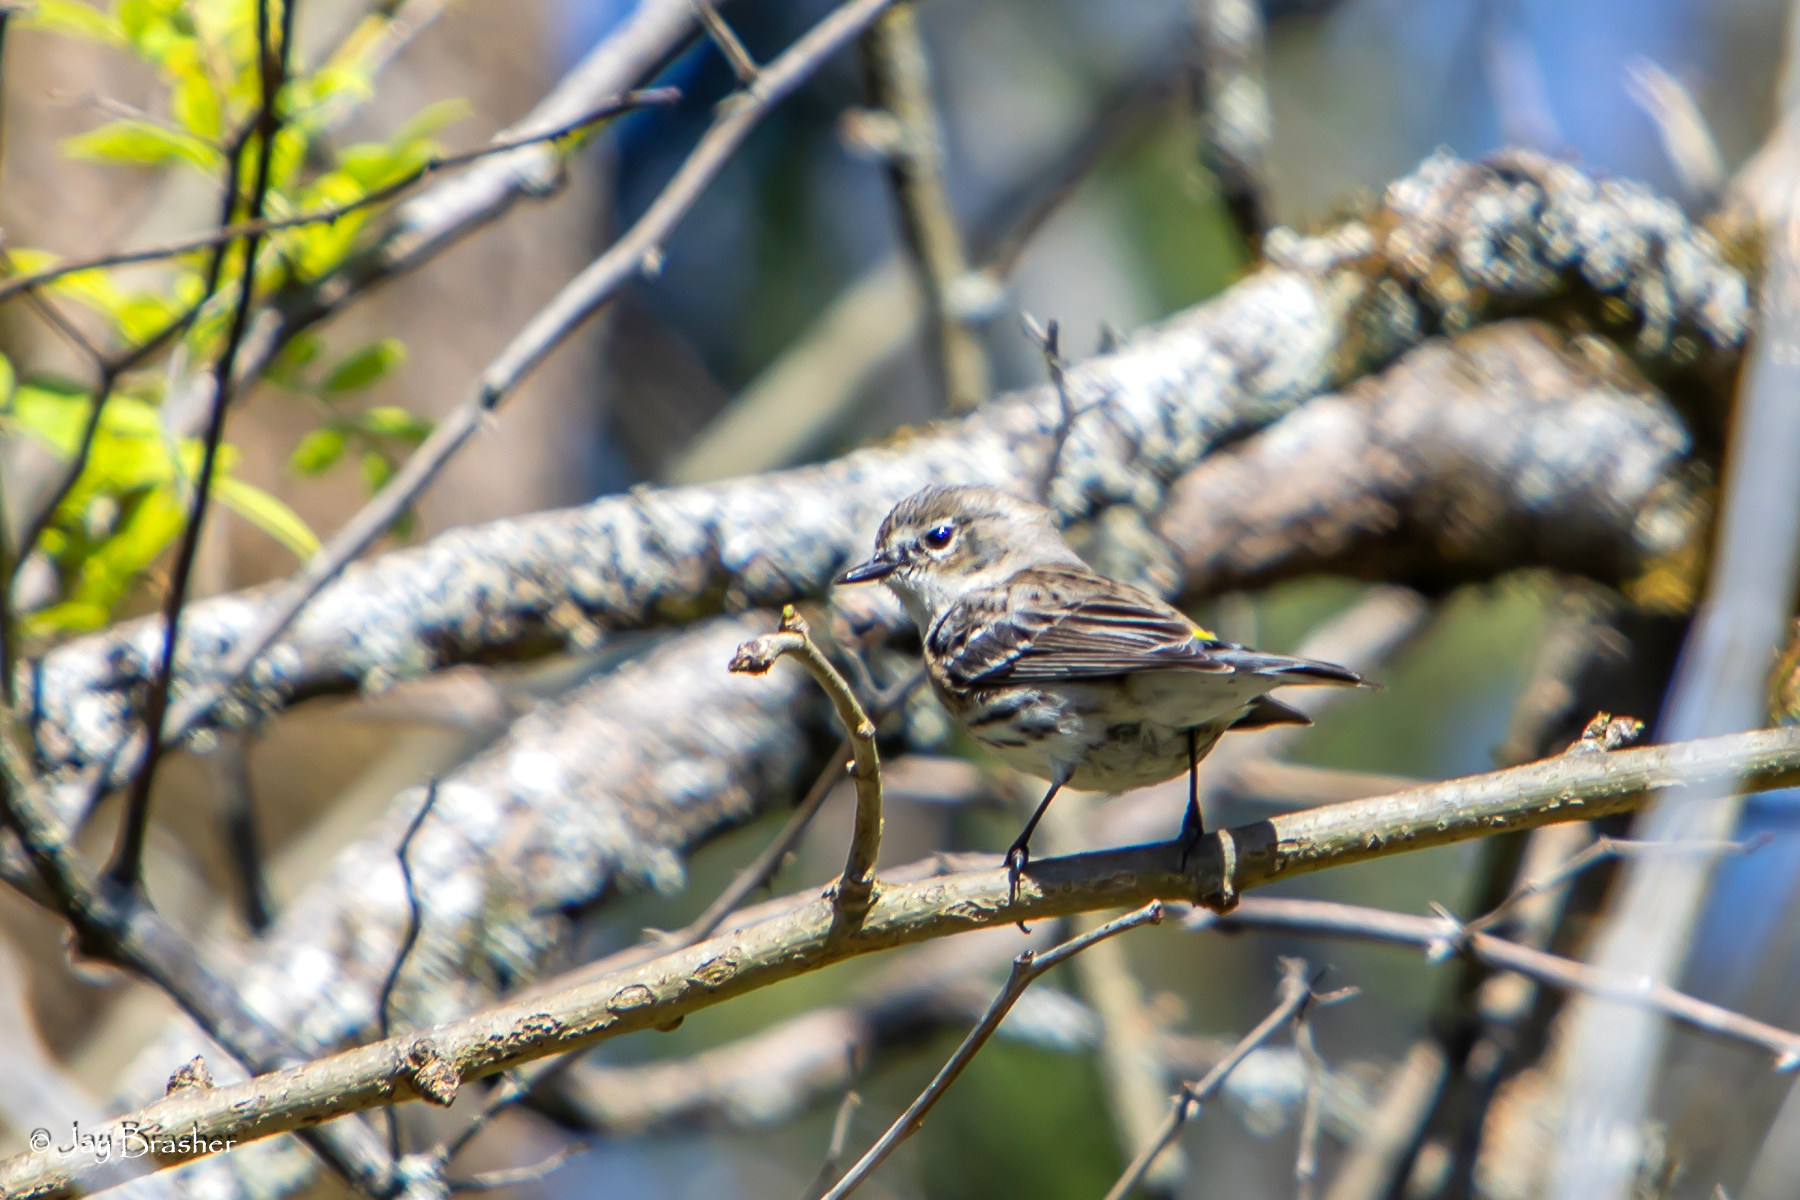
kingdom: Animalia
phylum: Chordata
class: Aves
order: Passeriformes
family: Parulidae
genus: Setophaga
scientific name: Setophaga coronata
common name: Myrtle warbler
